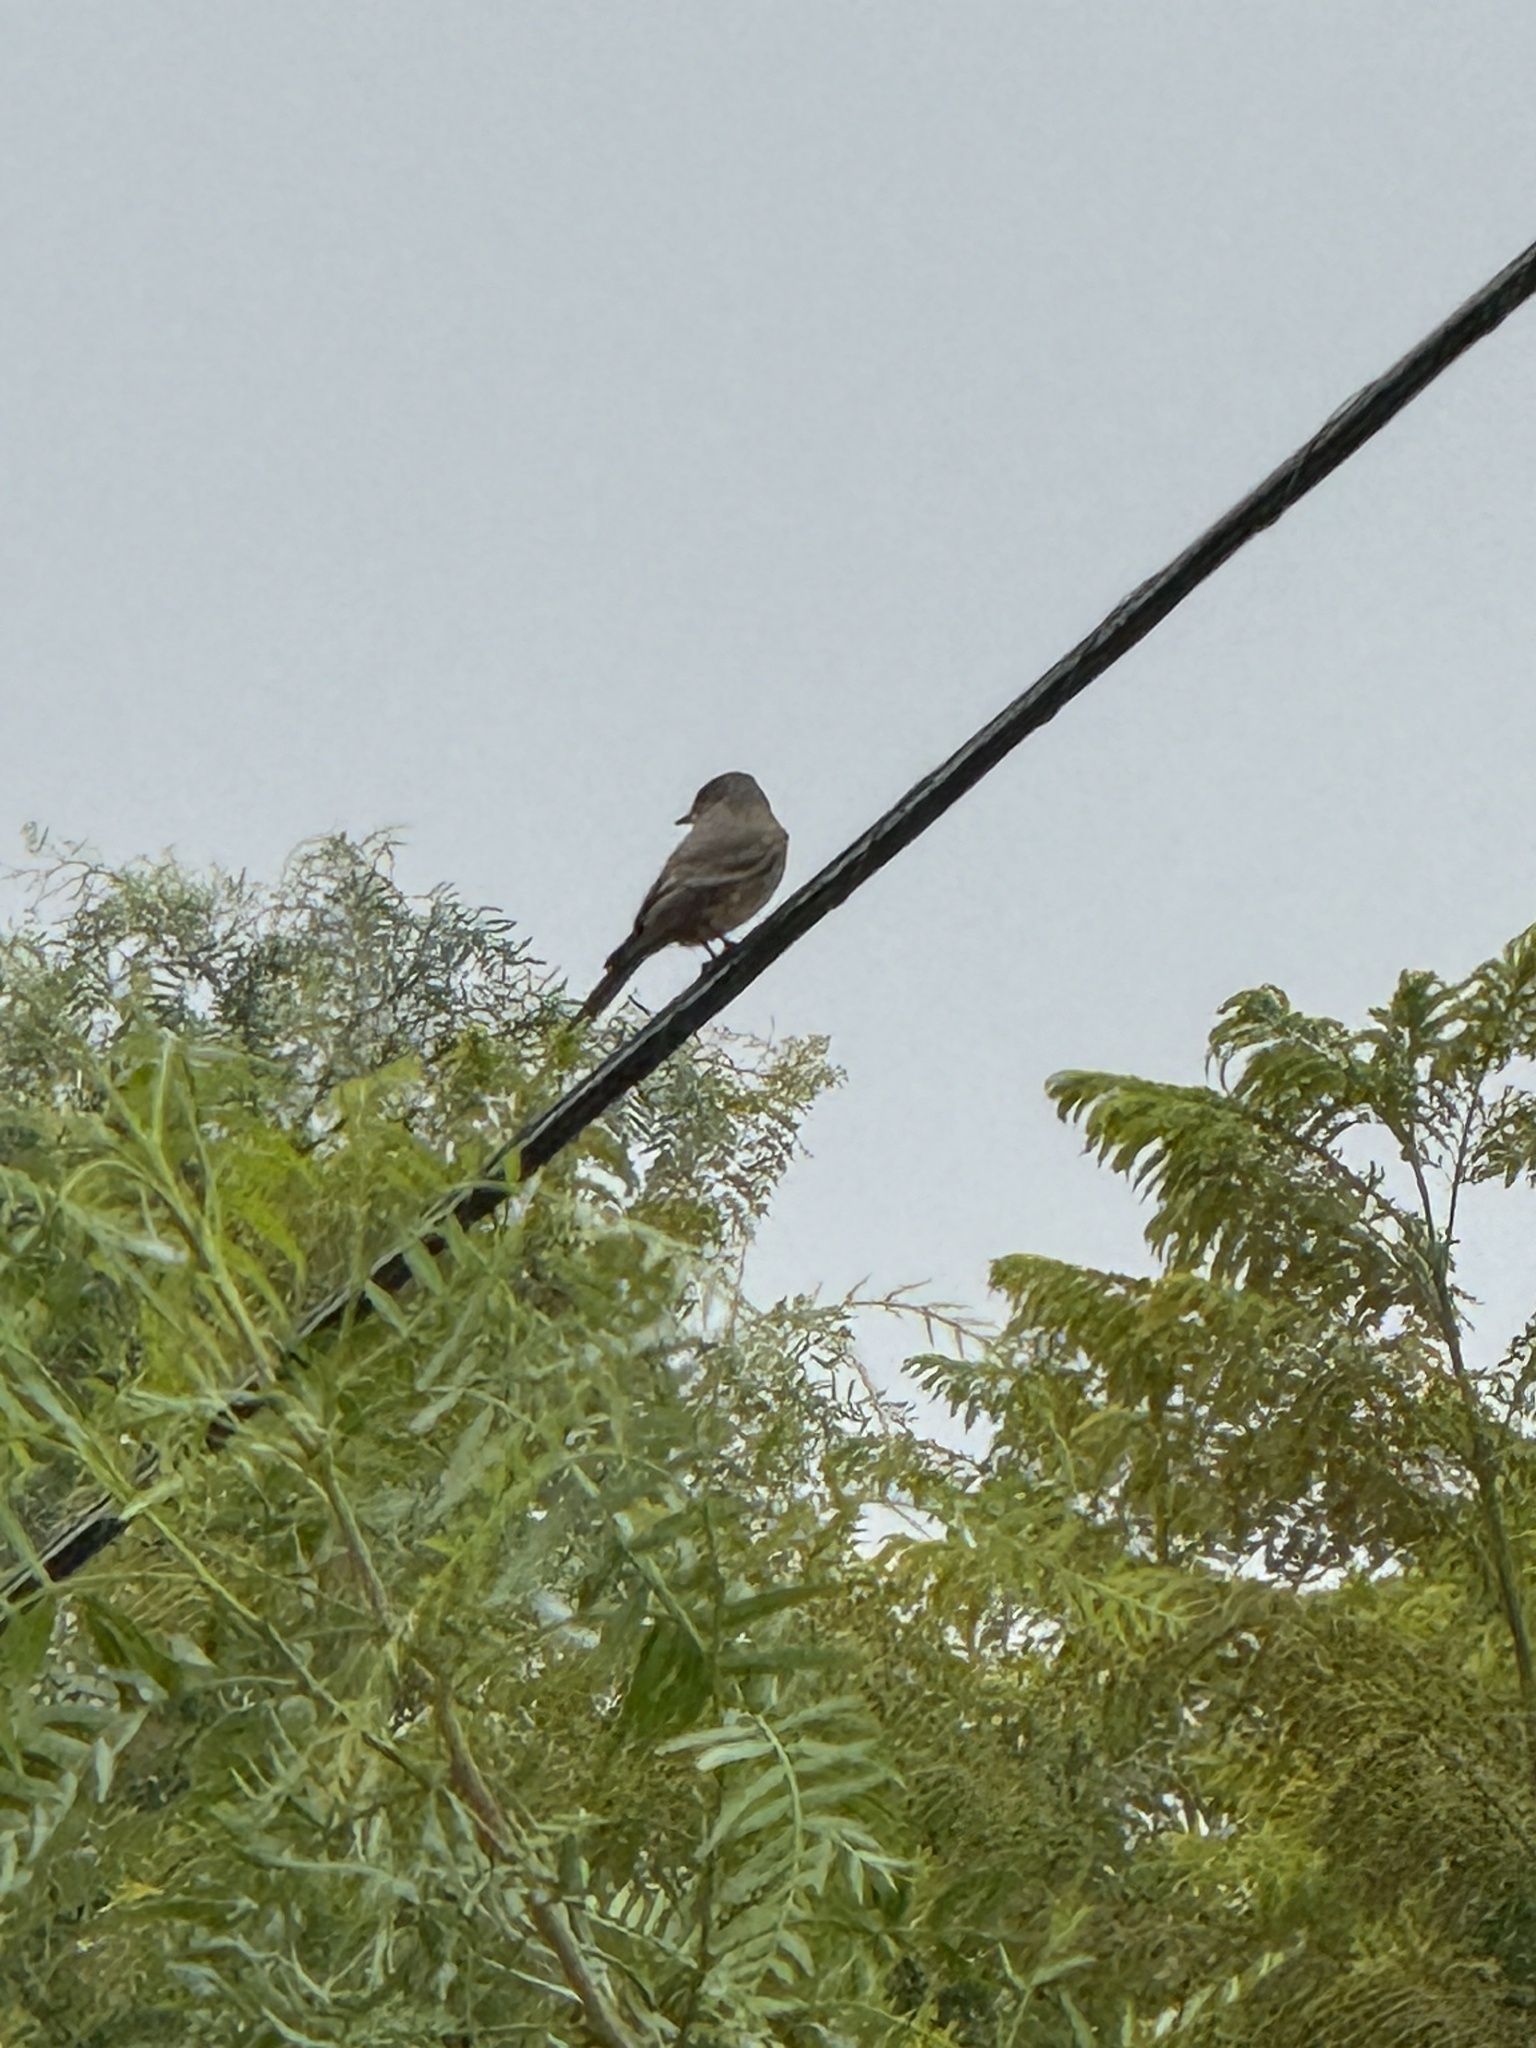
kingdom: Animalia
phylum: Chordata
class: Aves
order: Passeriformes
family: Tyrannidae
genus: Sayornis
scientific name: Sayornis saya
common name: Say's phoebe
